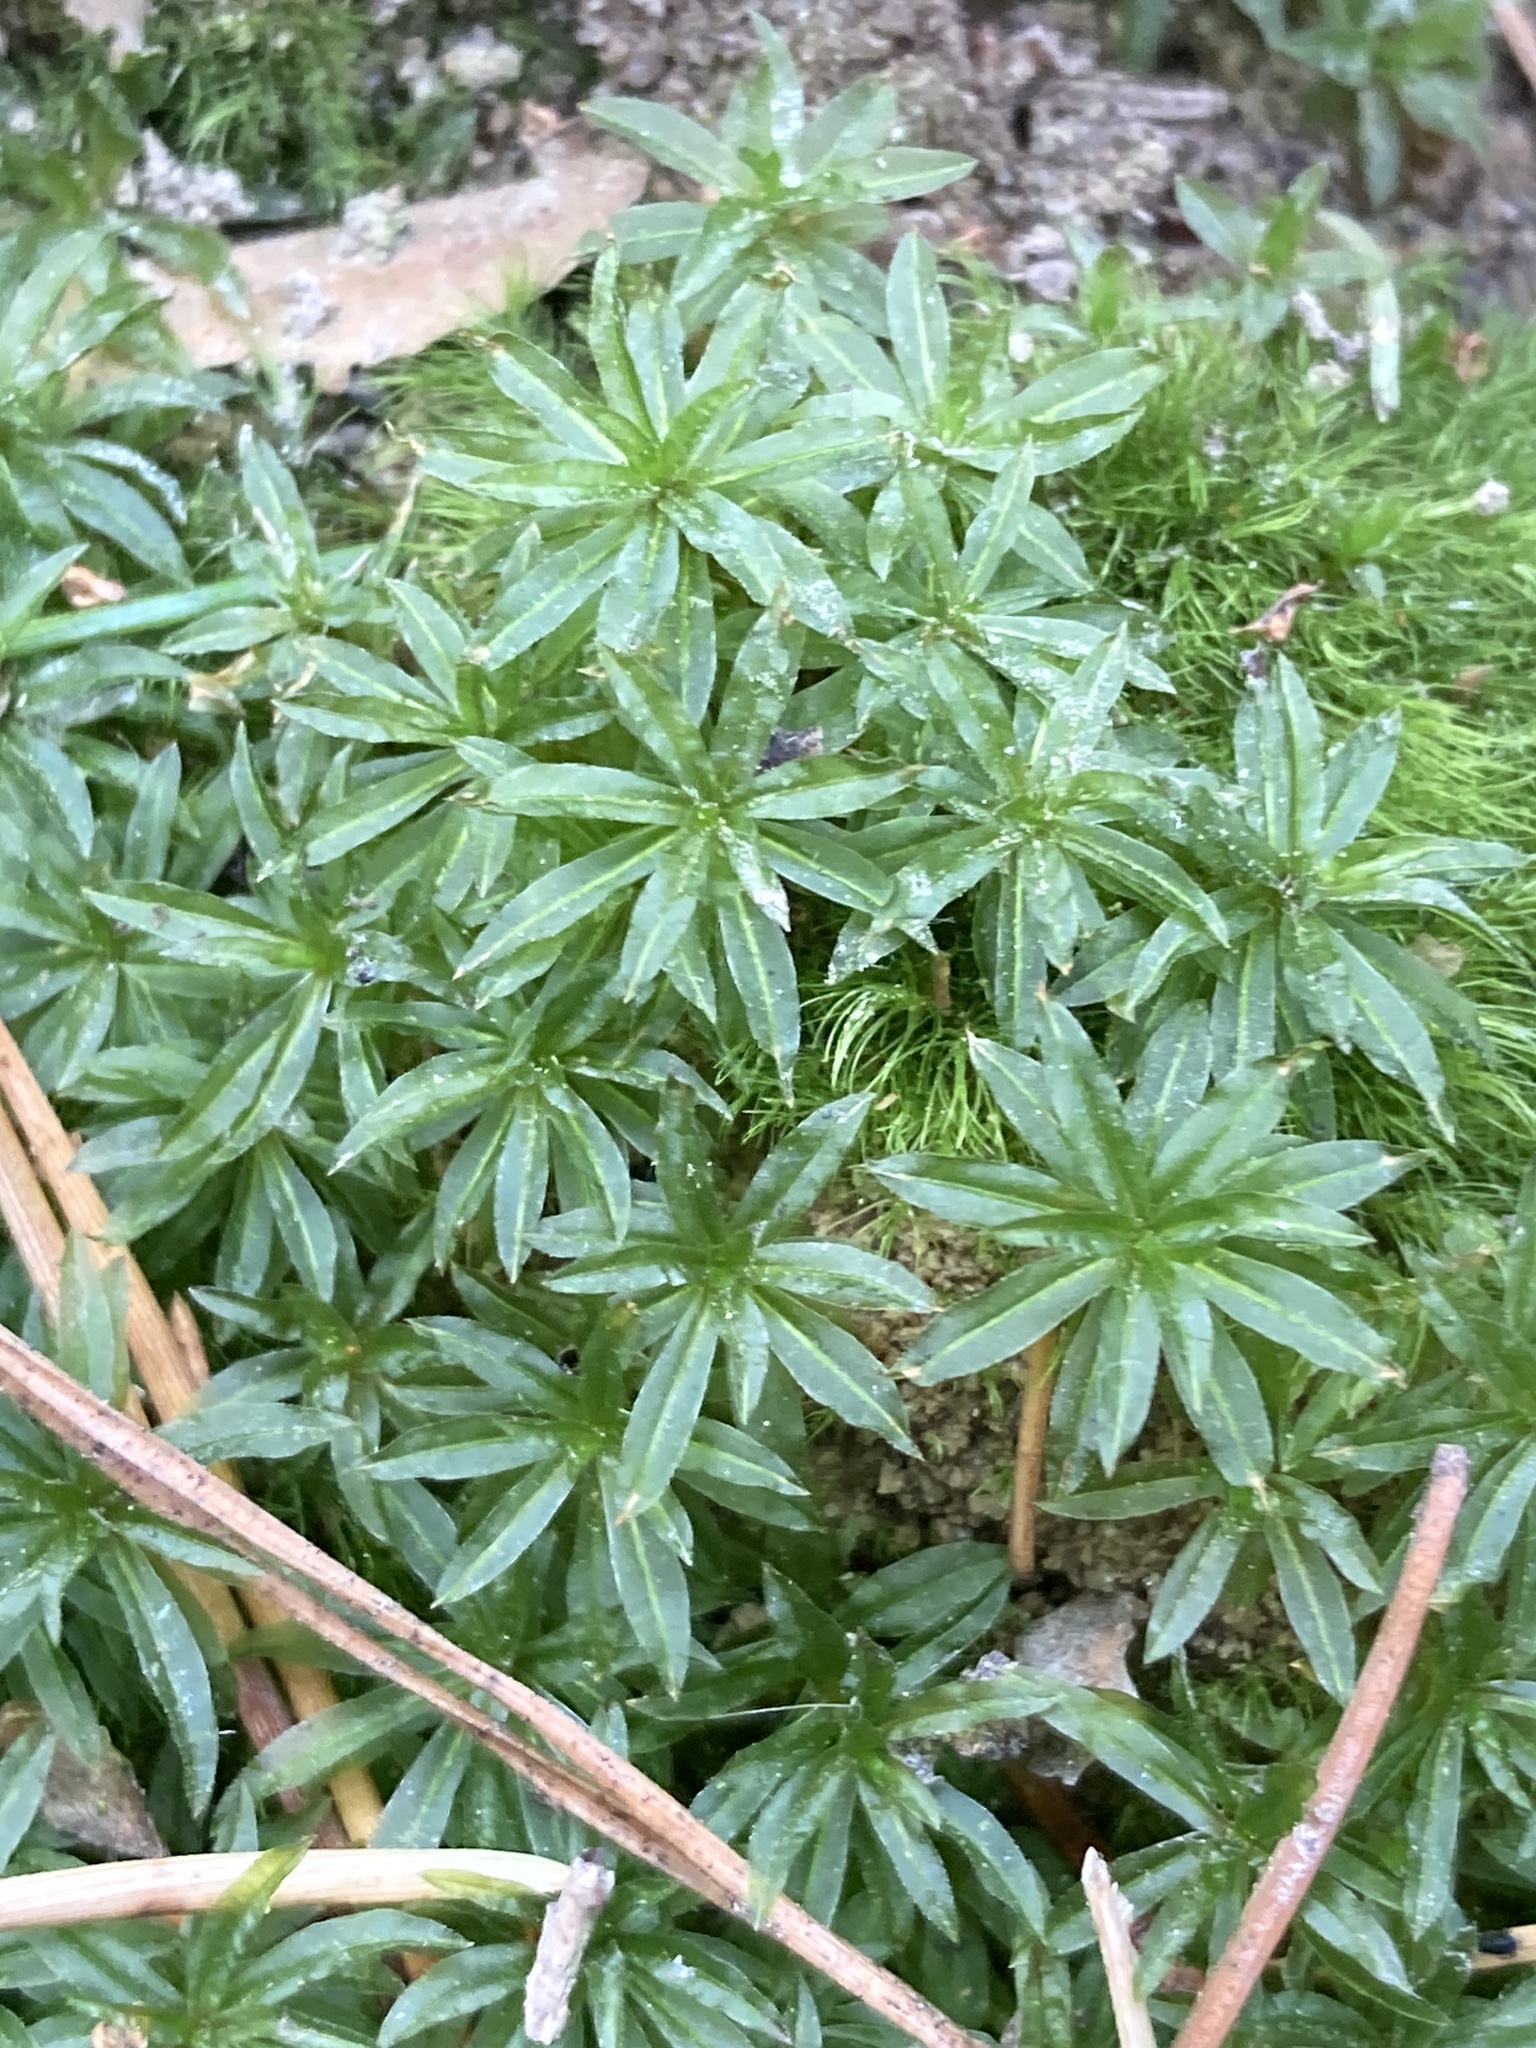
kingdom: Plantae
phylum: Bryophyta
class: Polytrichopsida
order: Polytrichales
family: Polytrichaceae
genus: Atrichum
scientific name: Atrichum undulatum
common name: Common smoothcap
